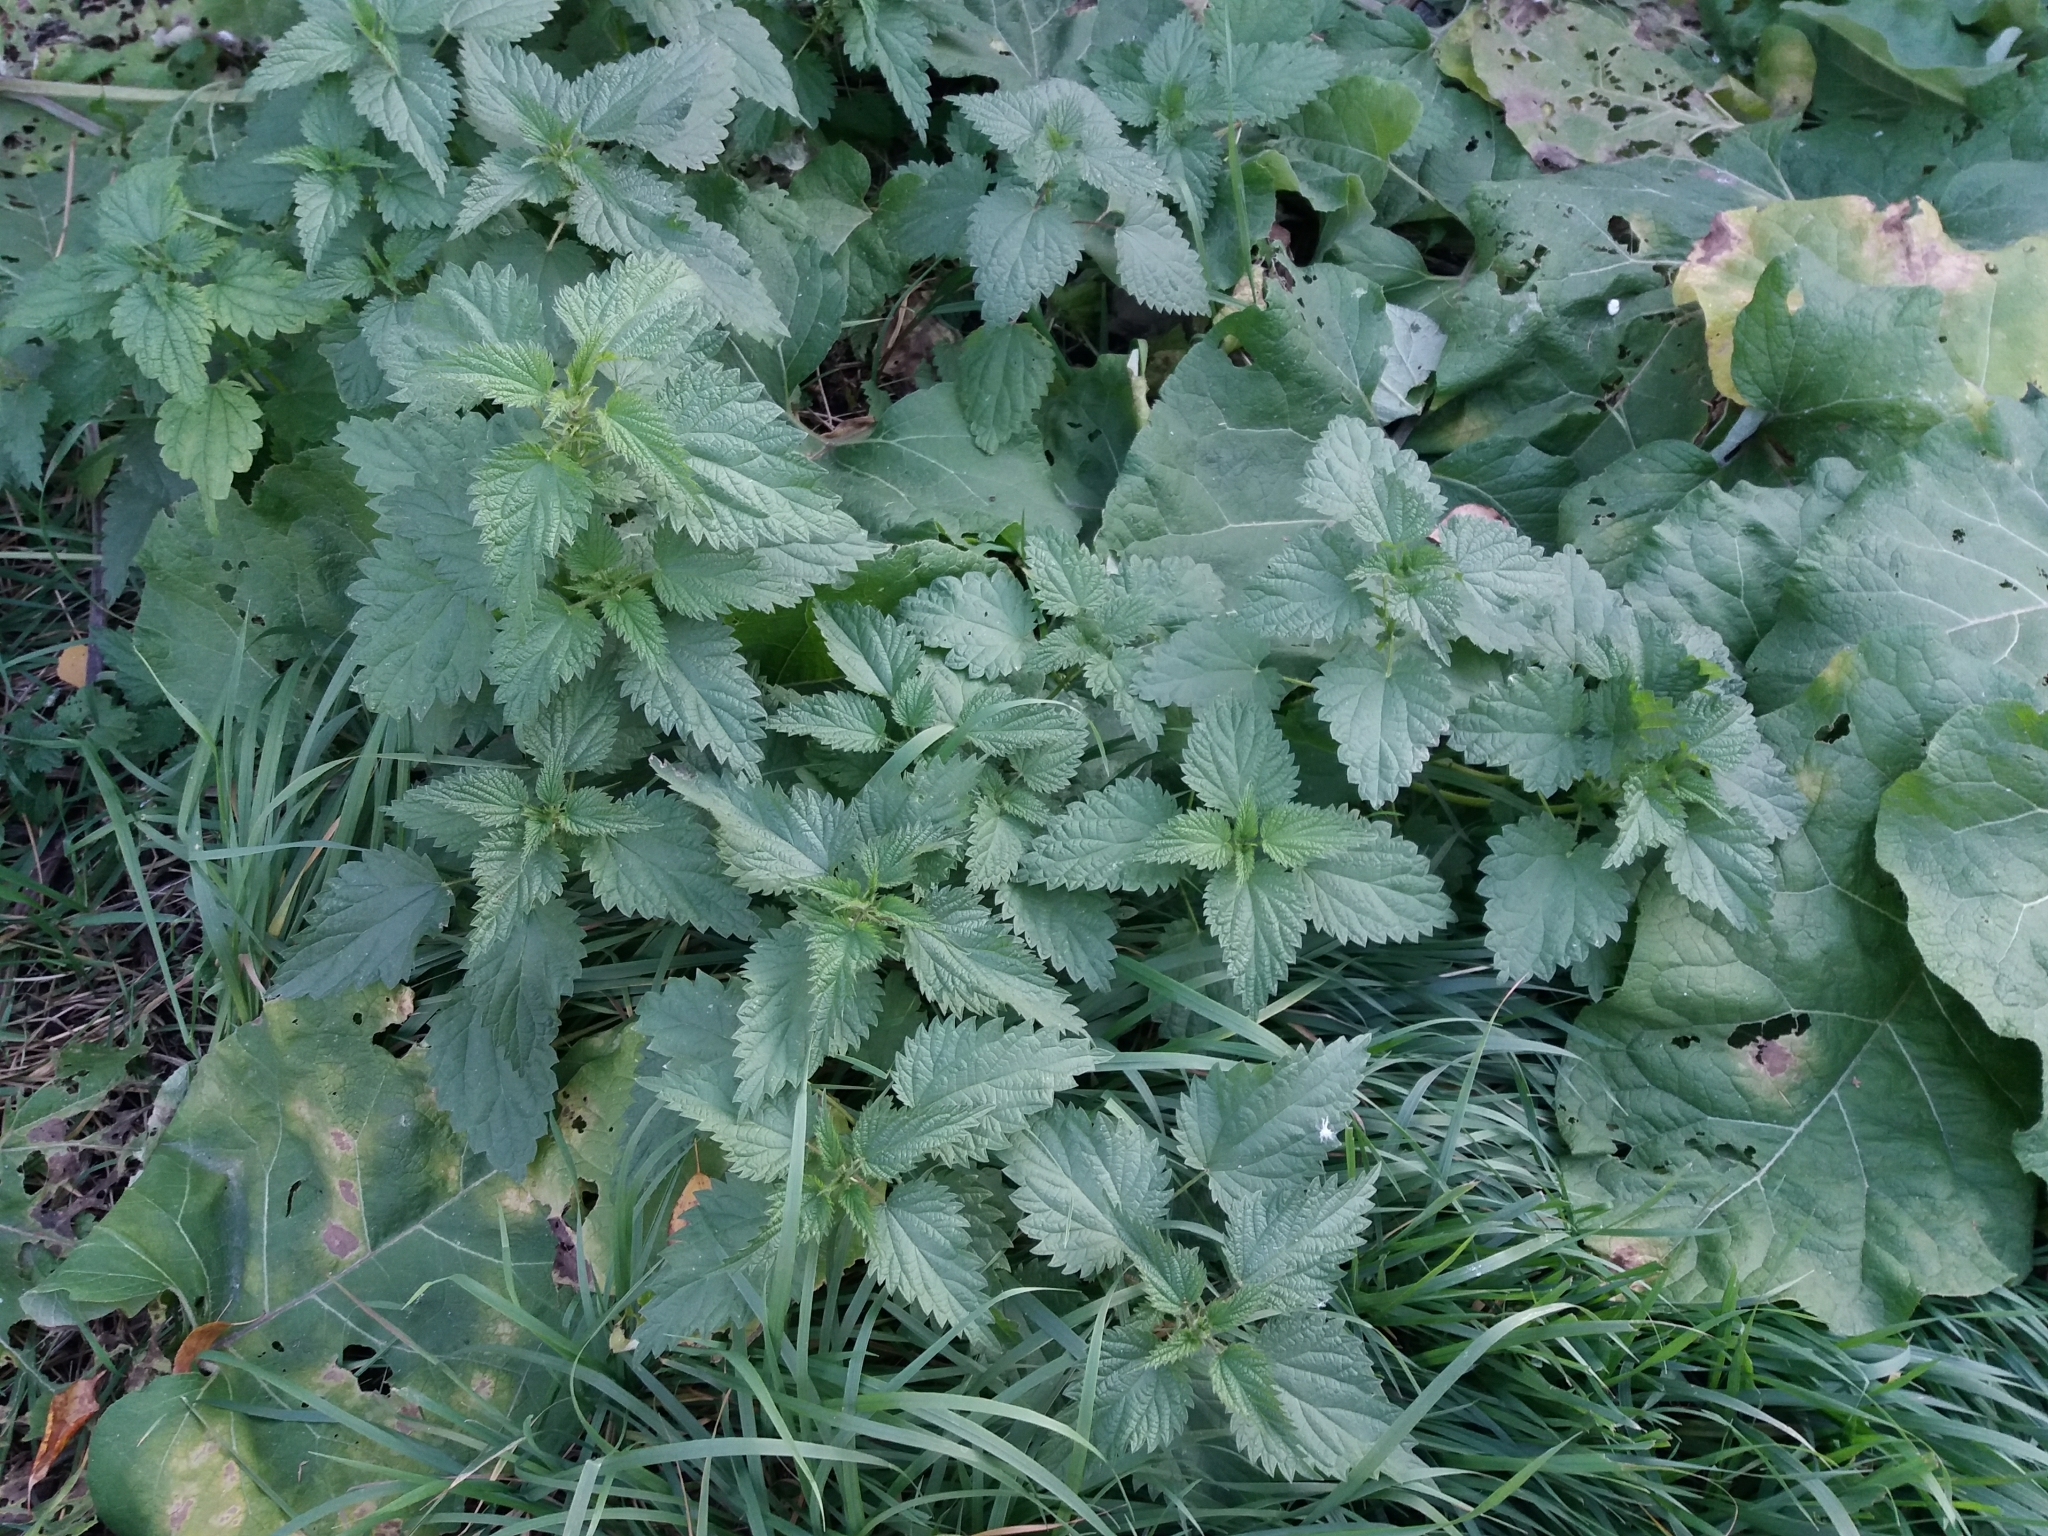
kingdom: Plantae
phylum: Tracheophyta
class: Magnoliopsida
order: Rosales
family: Urticaceae
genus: Urtica
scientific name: Urtica dioica
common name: Common nettle
